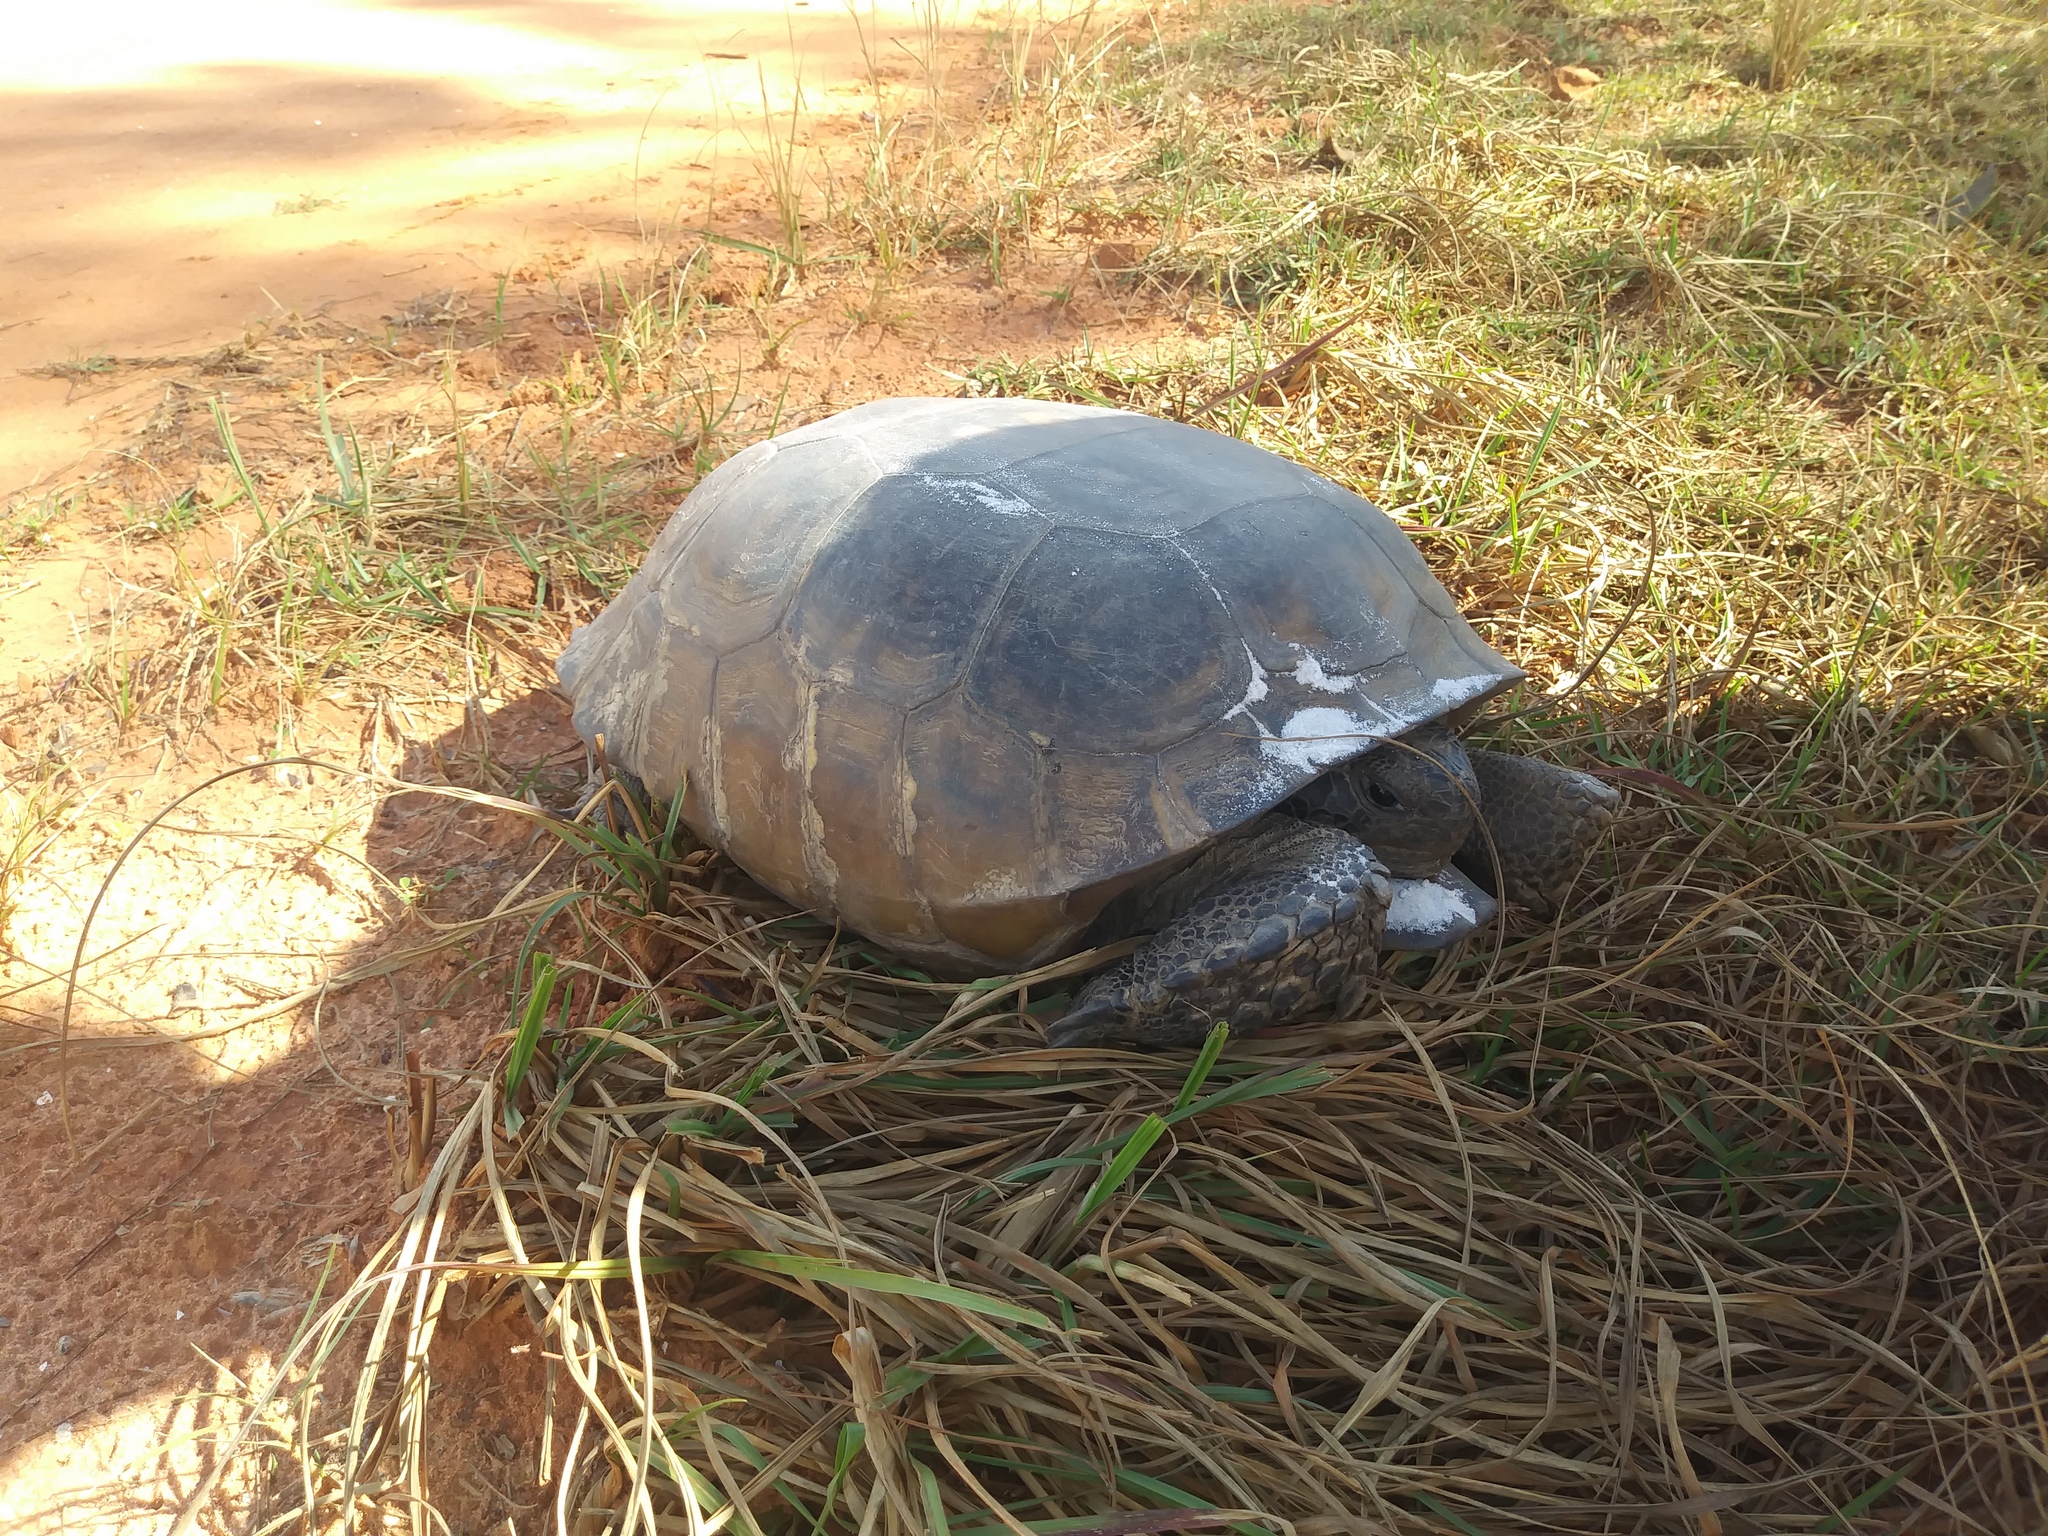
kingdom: Animalia
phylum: Chordata
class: Testudines
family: Testudinidae
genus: Gopherus
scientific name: Gopherus polyphemus
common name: Florida gopher tortoise
